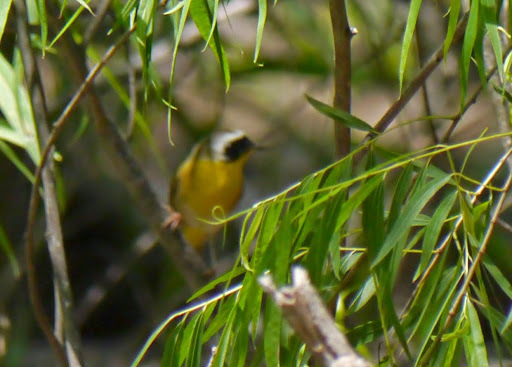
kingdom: Animalia
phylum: Chordata
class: Aves
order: Passeriformes
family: Parulidae
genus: Geothlypis
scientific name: Geothlypis trichas
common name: Common yellowthroat
